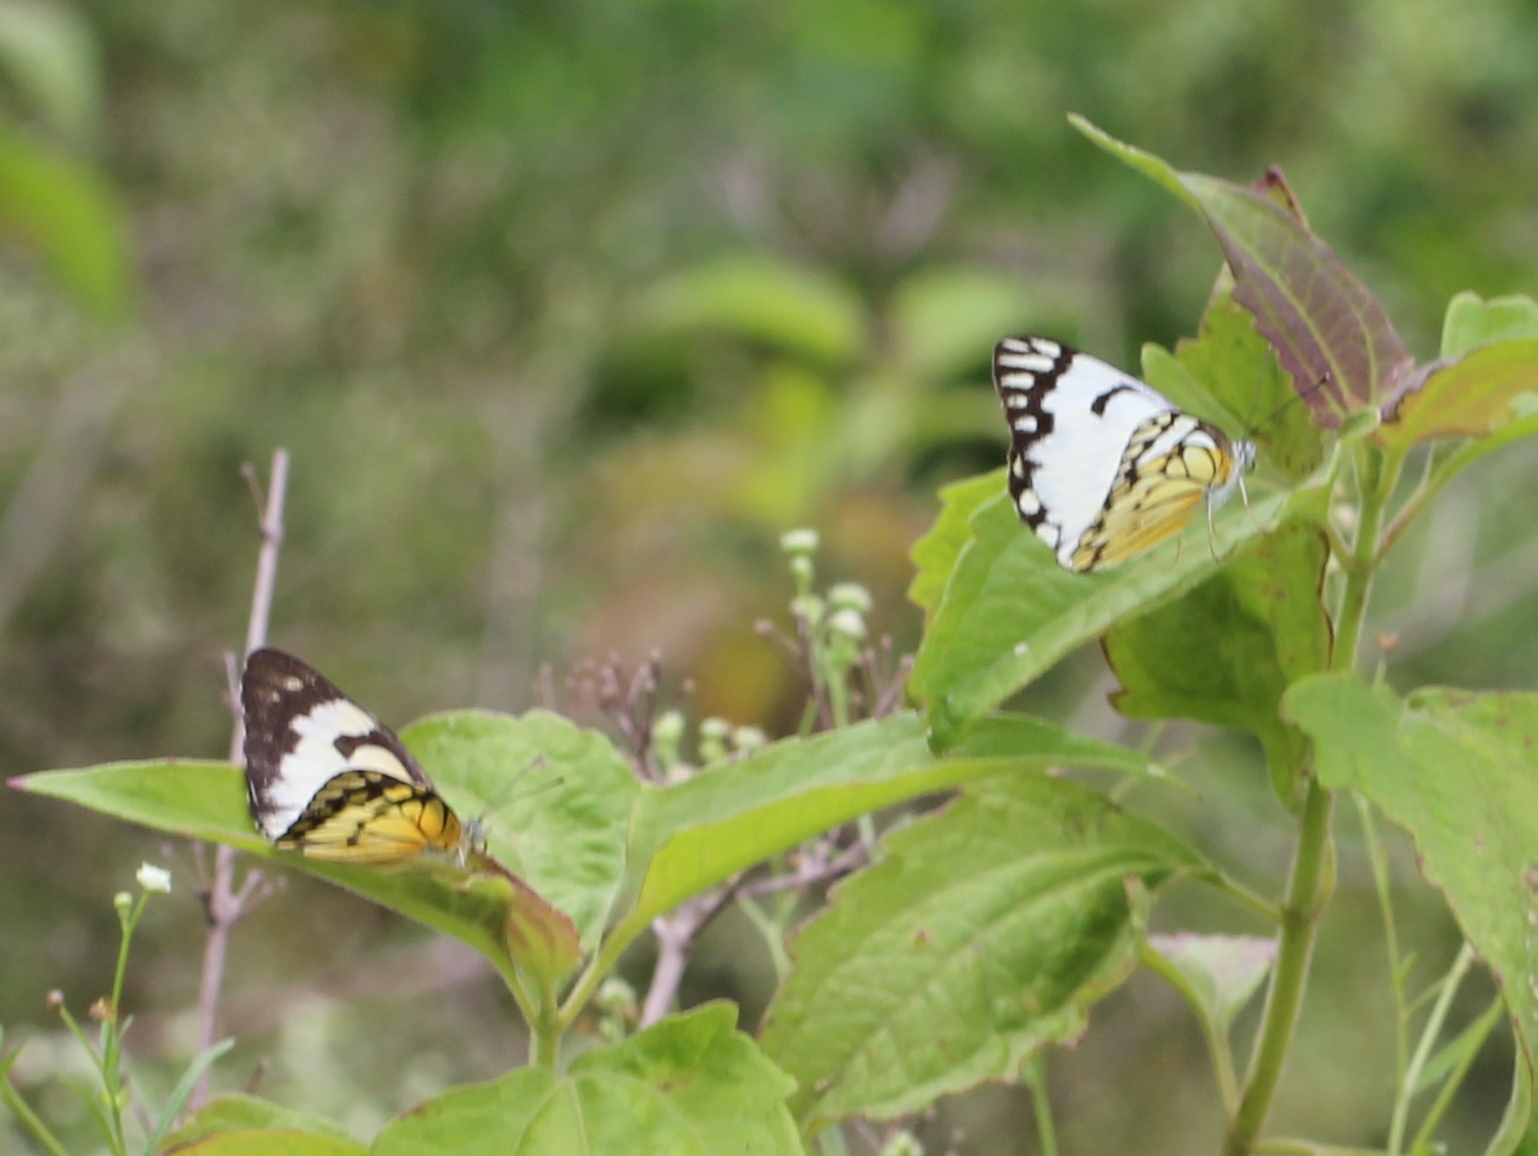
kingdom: Animalia
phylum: Arthropoda
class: Insecta
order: Lepidoptera
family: Pieridae
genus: Belenois
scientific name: Belenois aurota
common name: Brown-veined white
